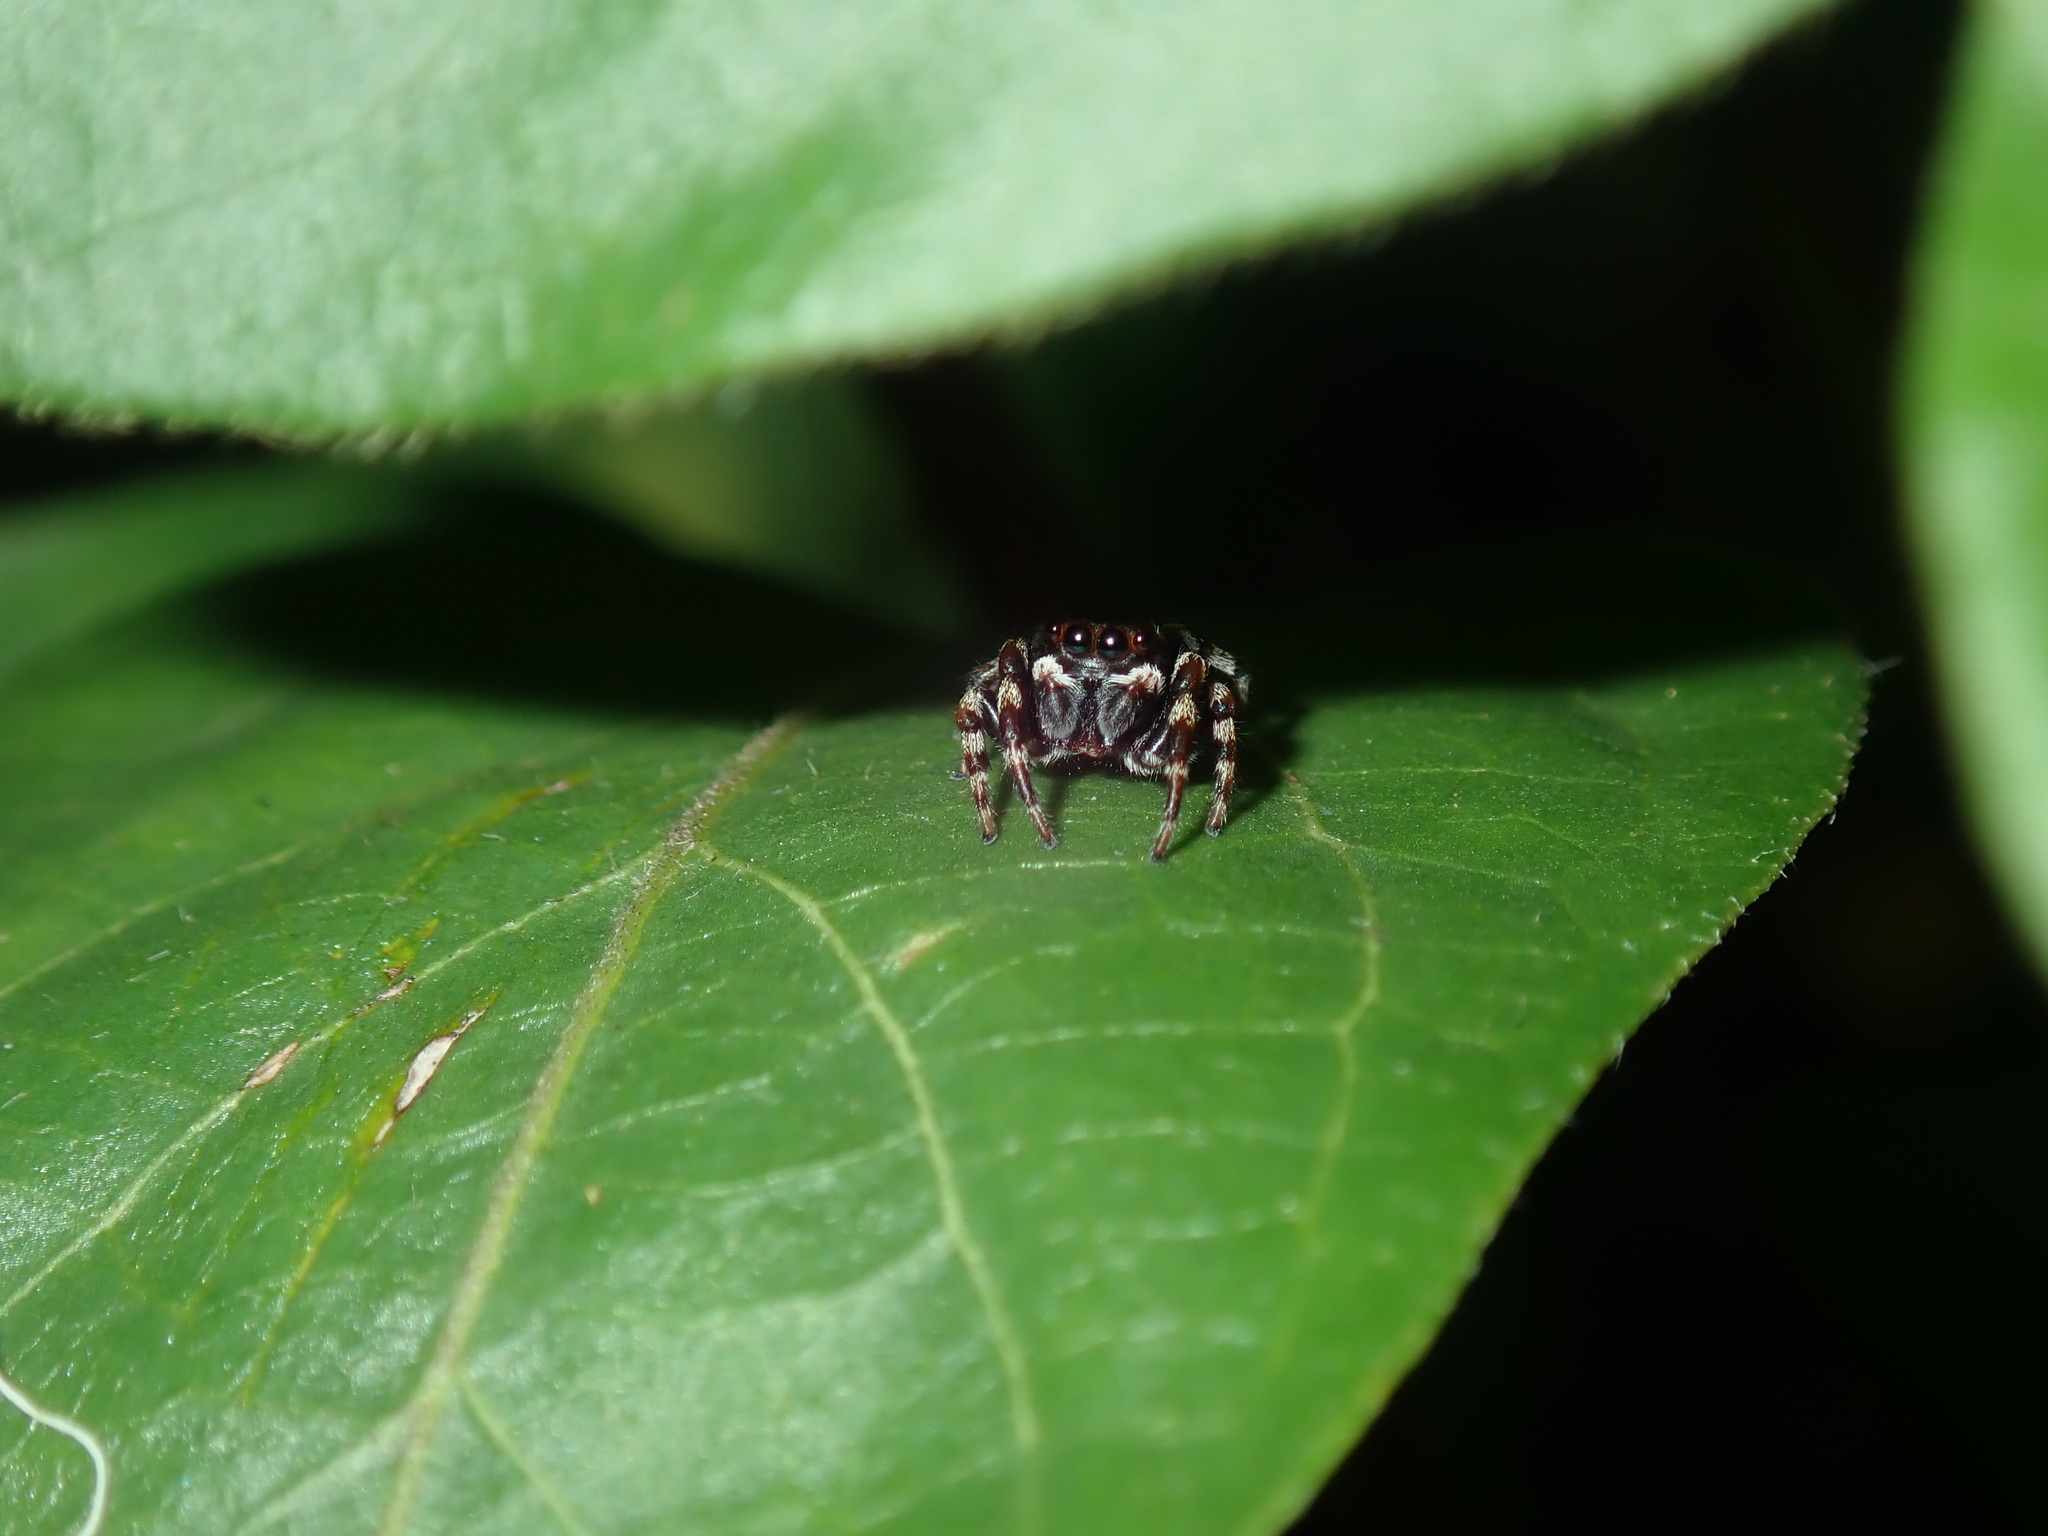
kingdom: Animalia
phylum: Arthropoda
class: Arachnida
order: Araneae
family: Salticidae
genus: Maratus
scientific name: Maratus scutulatus
